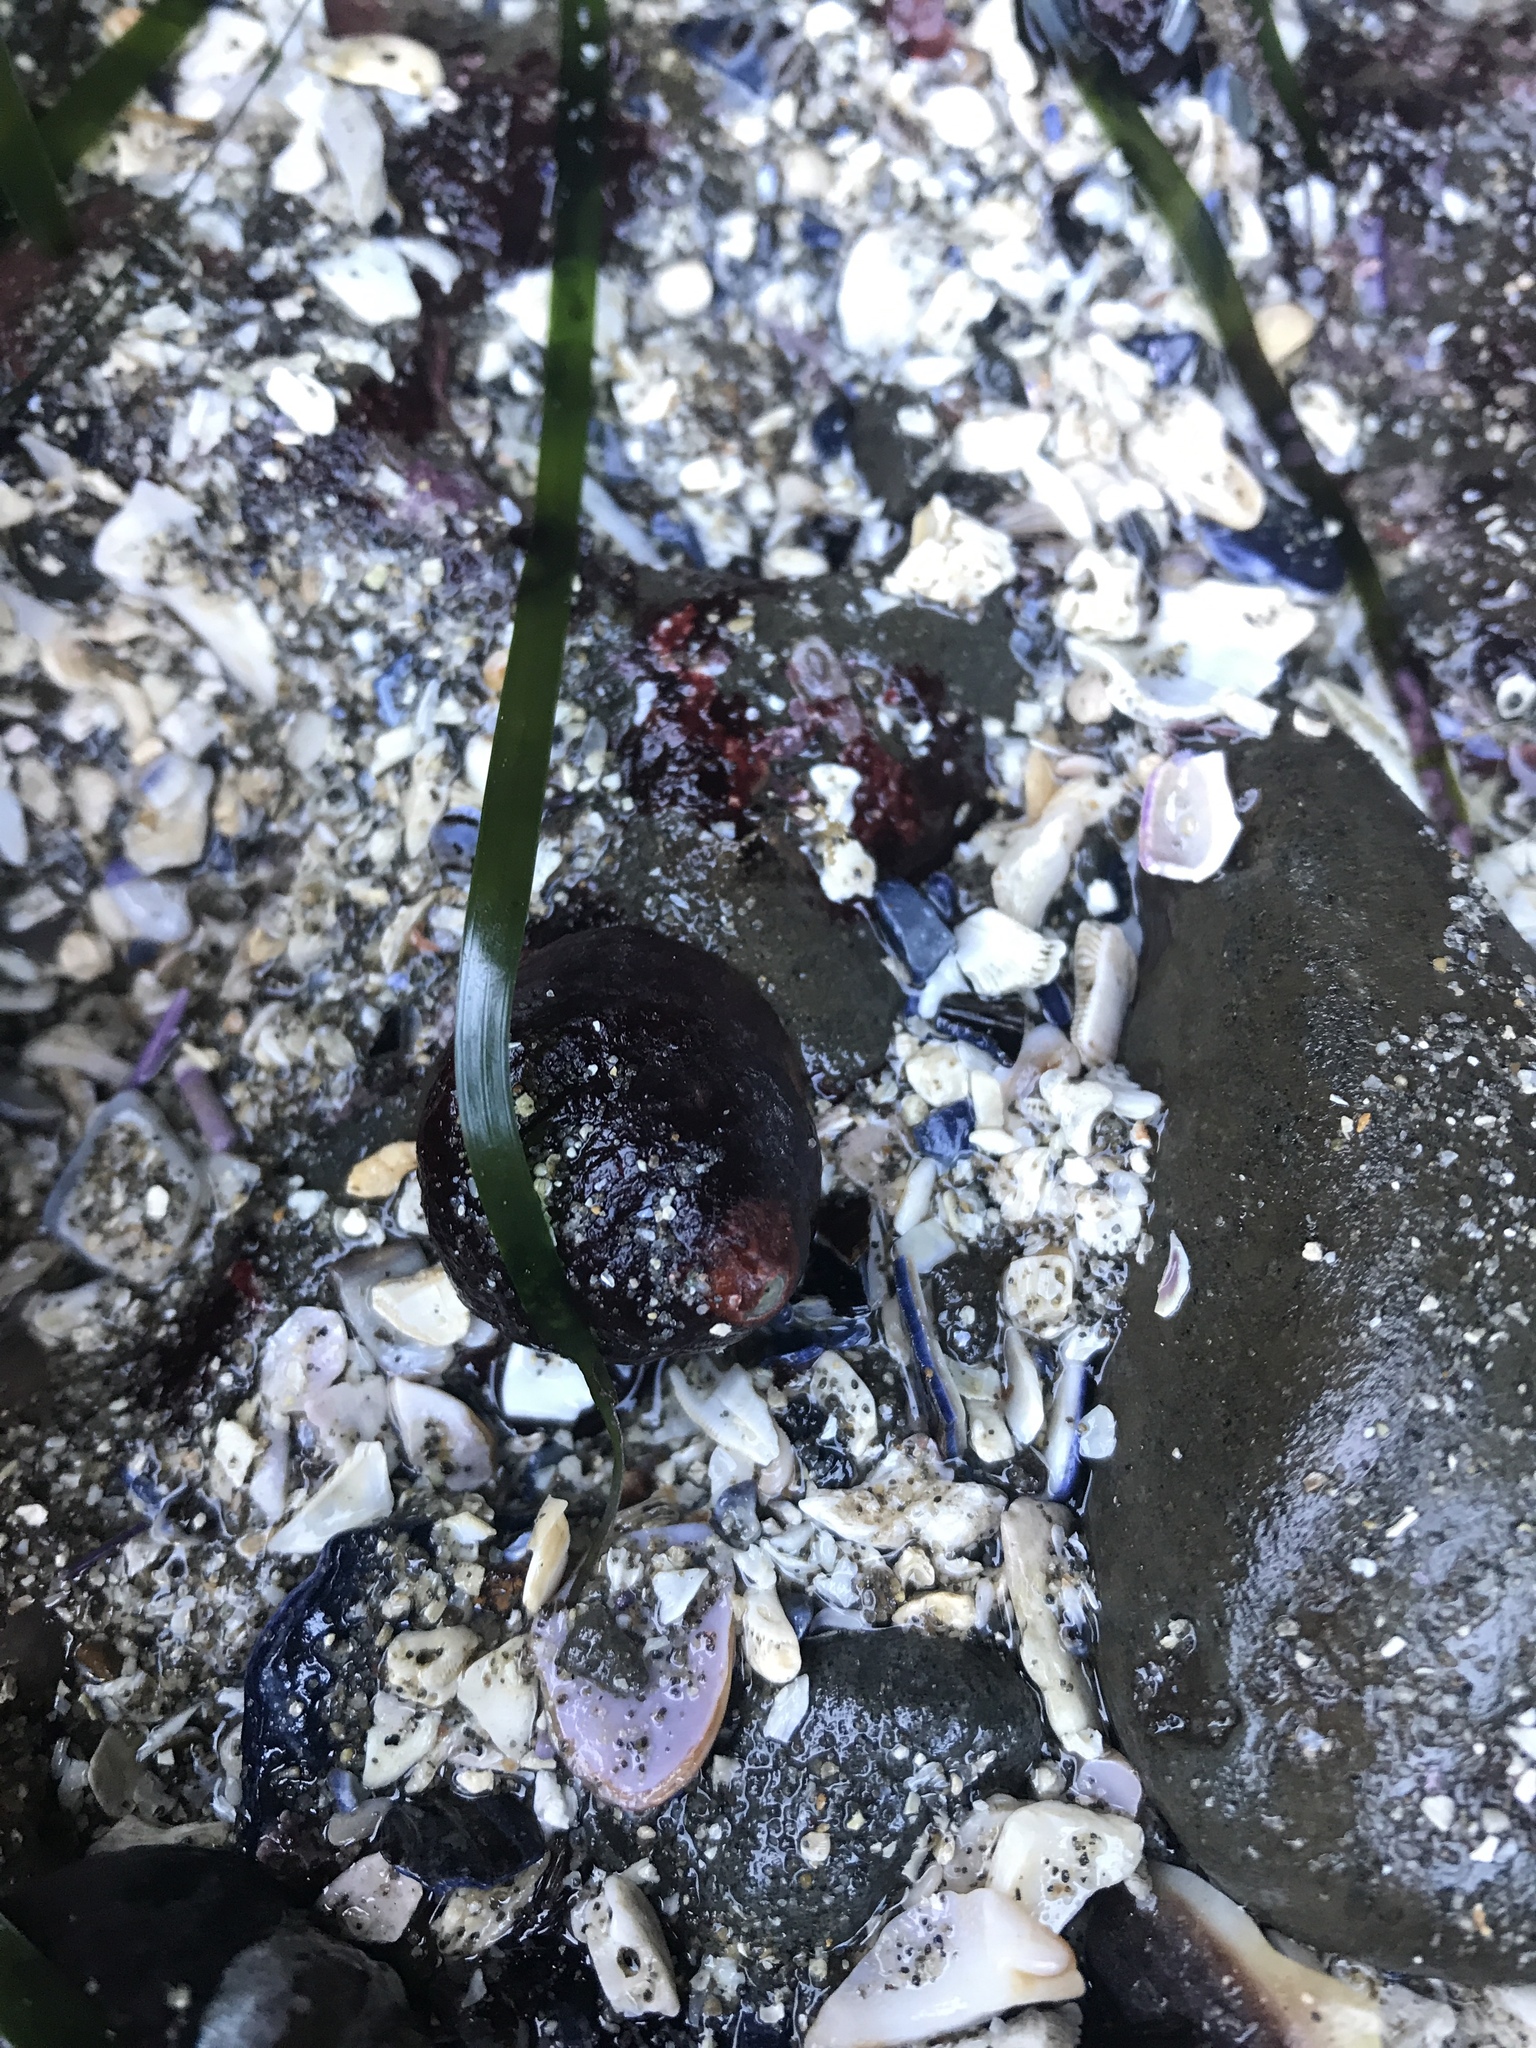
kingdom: Animalia
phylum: Mollusca
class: Gastropoda
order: Trochida
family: Tegulidae
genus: Tegula
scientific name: Tegula funebralis
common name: Black tegula
